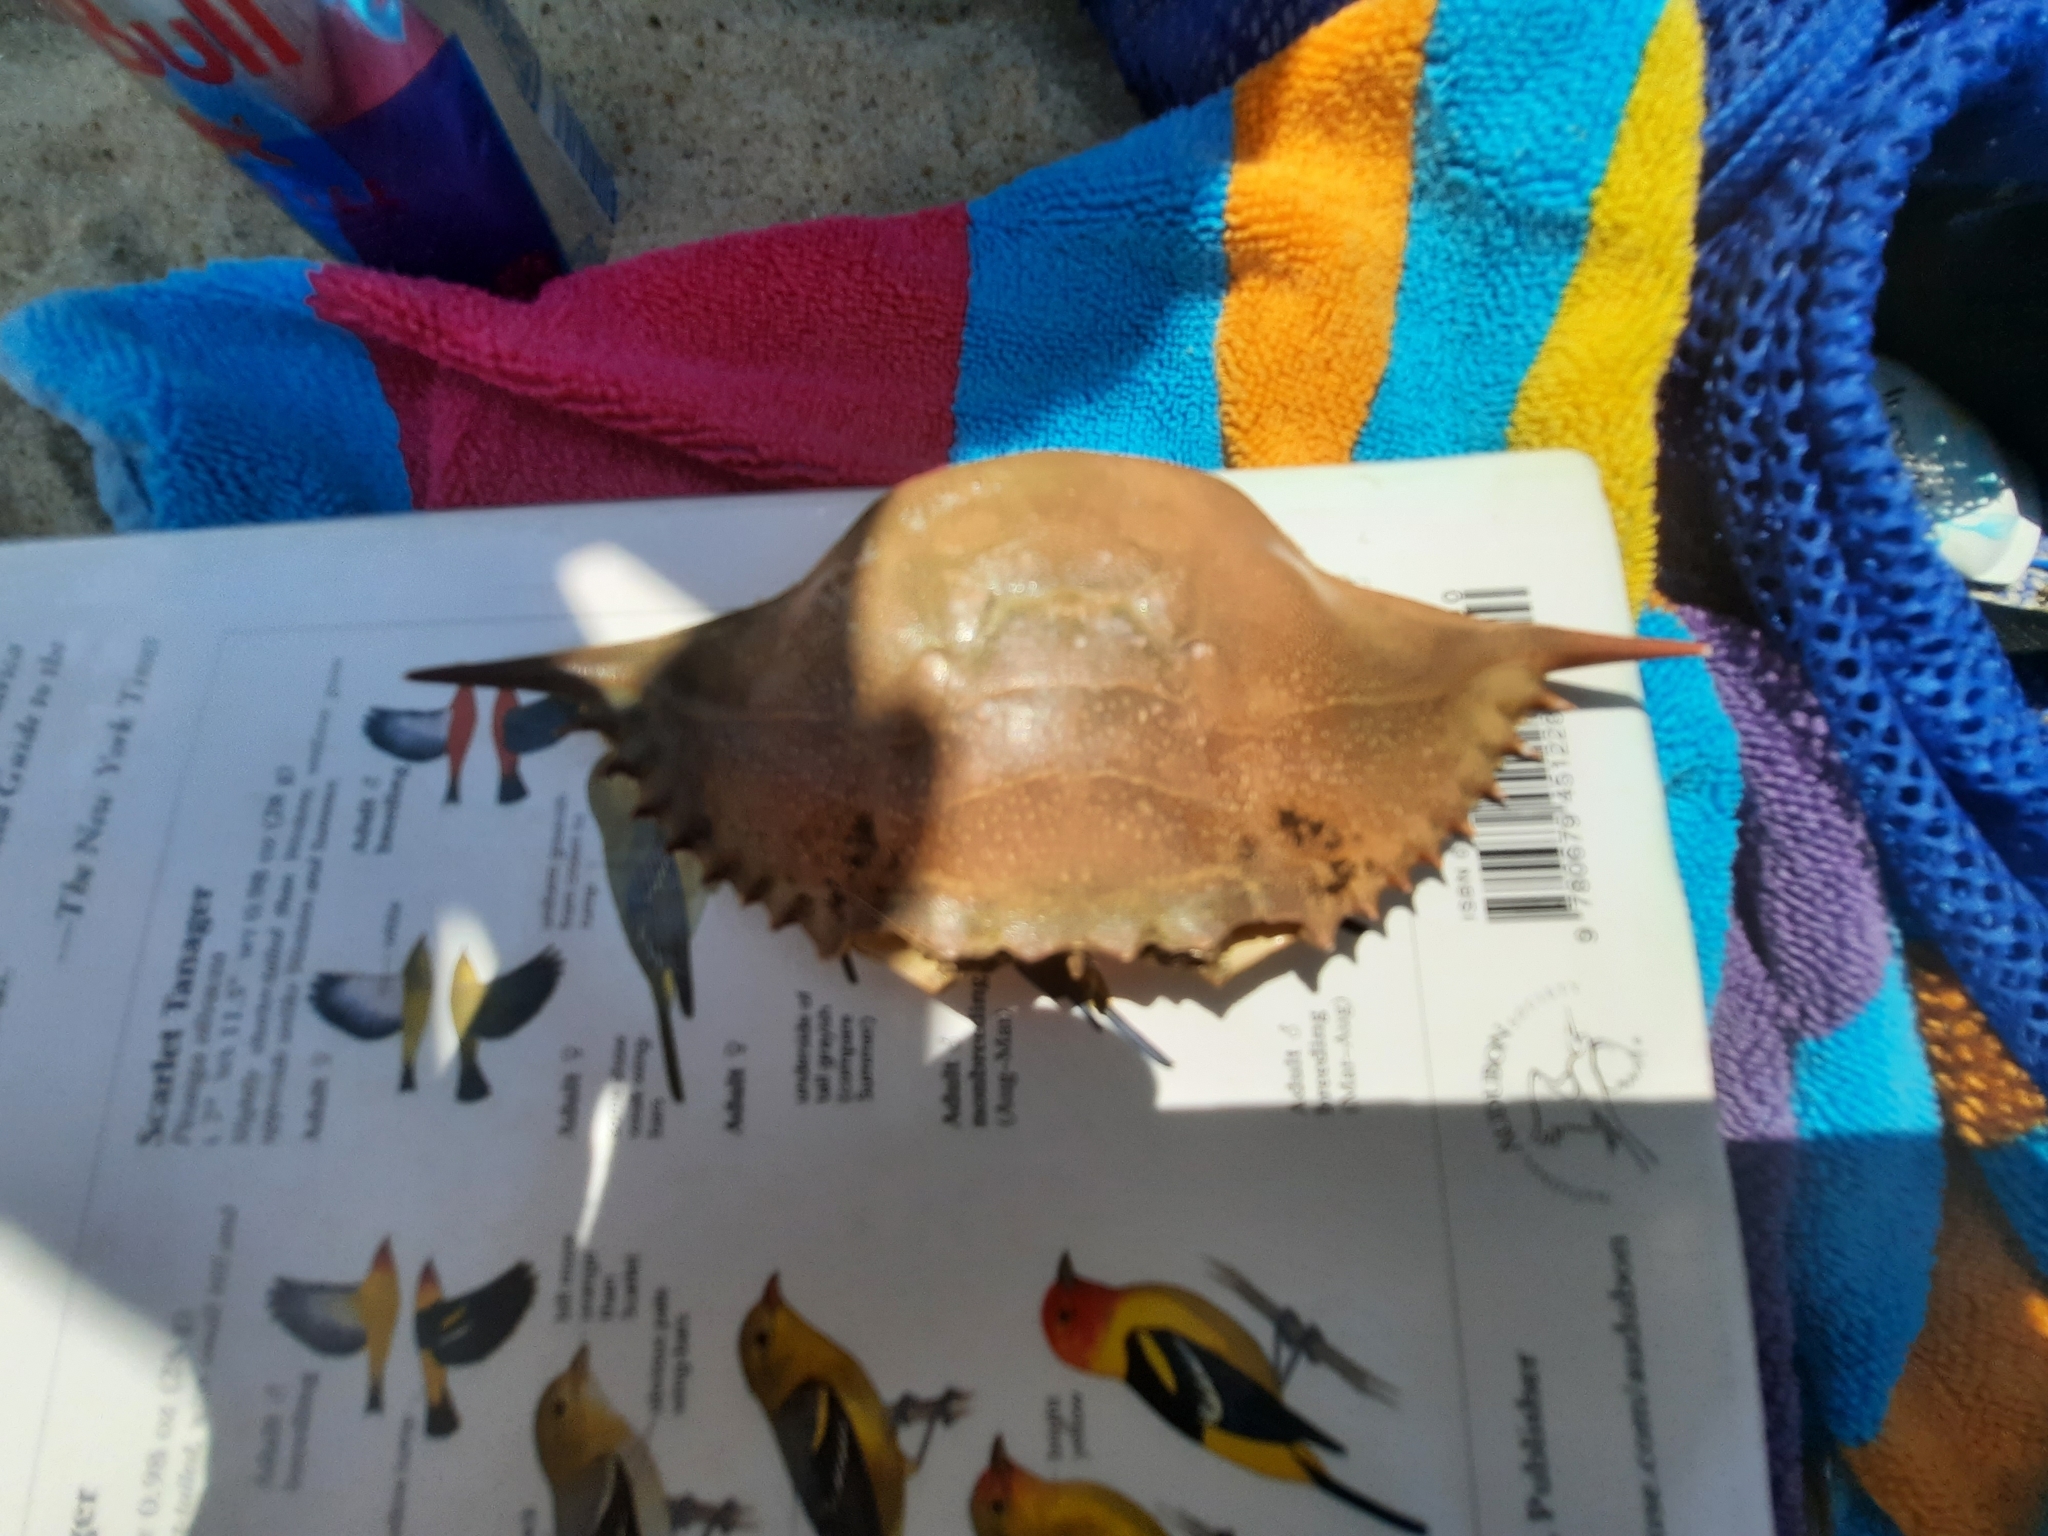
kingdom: Animalia
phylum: Arthropoda
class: Malacostraca
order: Decapoda
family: Portunidae
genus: Callinectes
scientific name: Callinectes sapidus
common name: Blue crab
